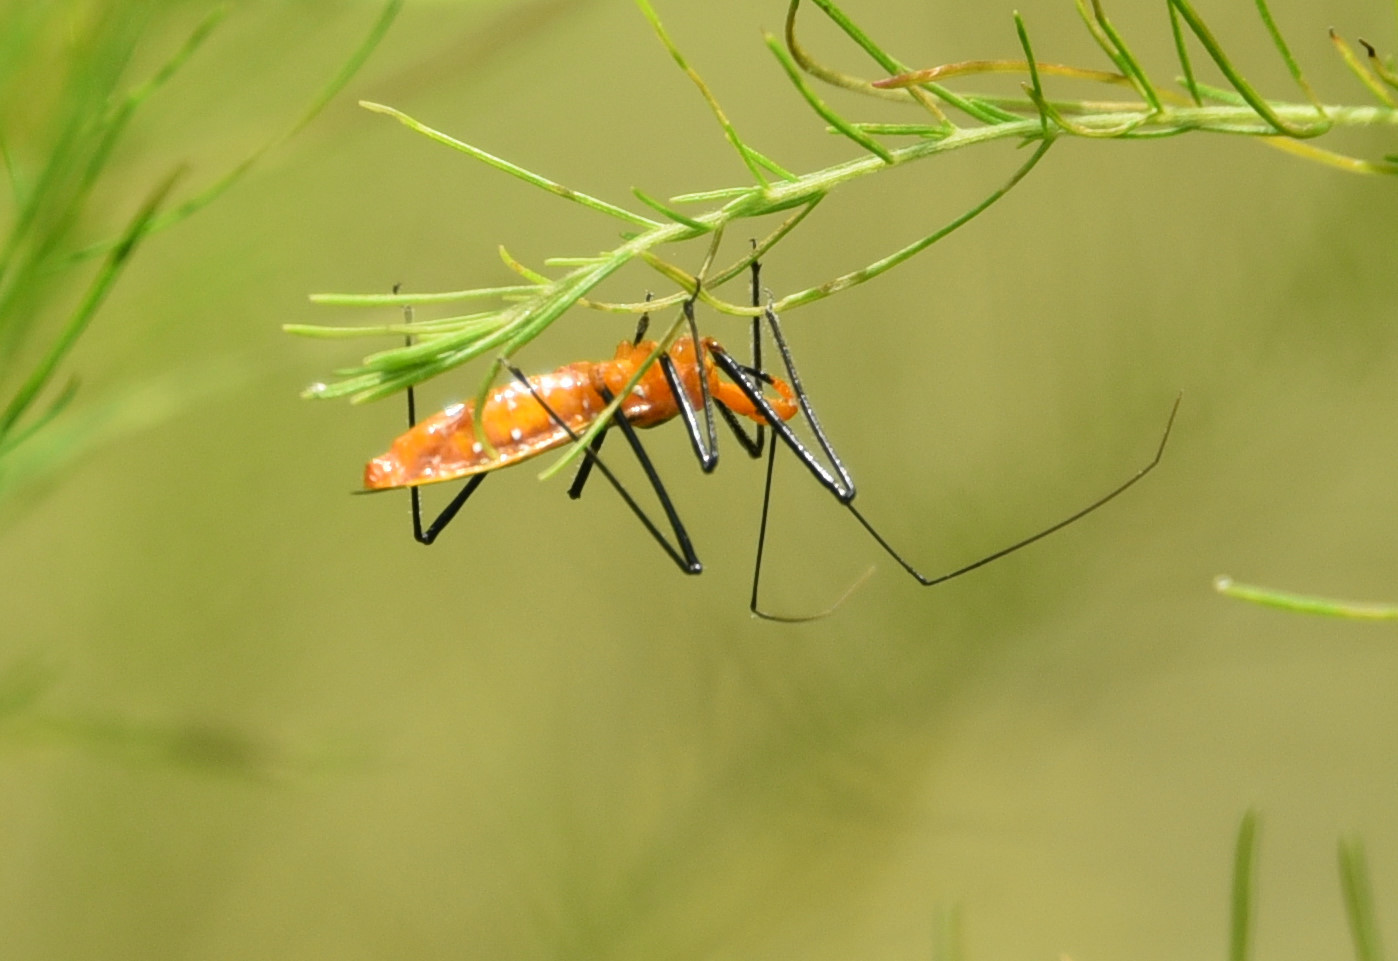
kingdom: Animalia
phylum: Arthropoda
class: Insecta
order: Hemiptera
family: Reduviidae
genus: Zelus
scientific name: Zelus longipes
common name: Milkweed assassin bug
